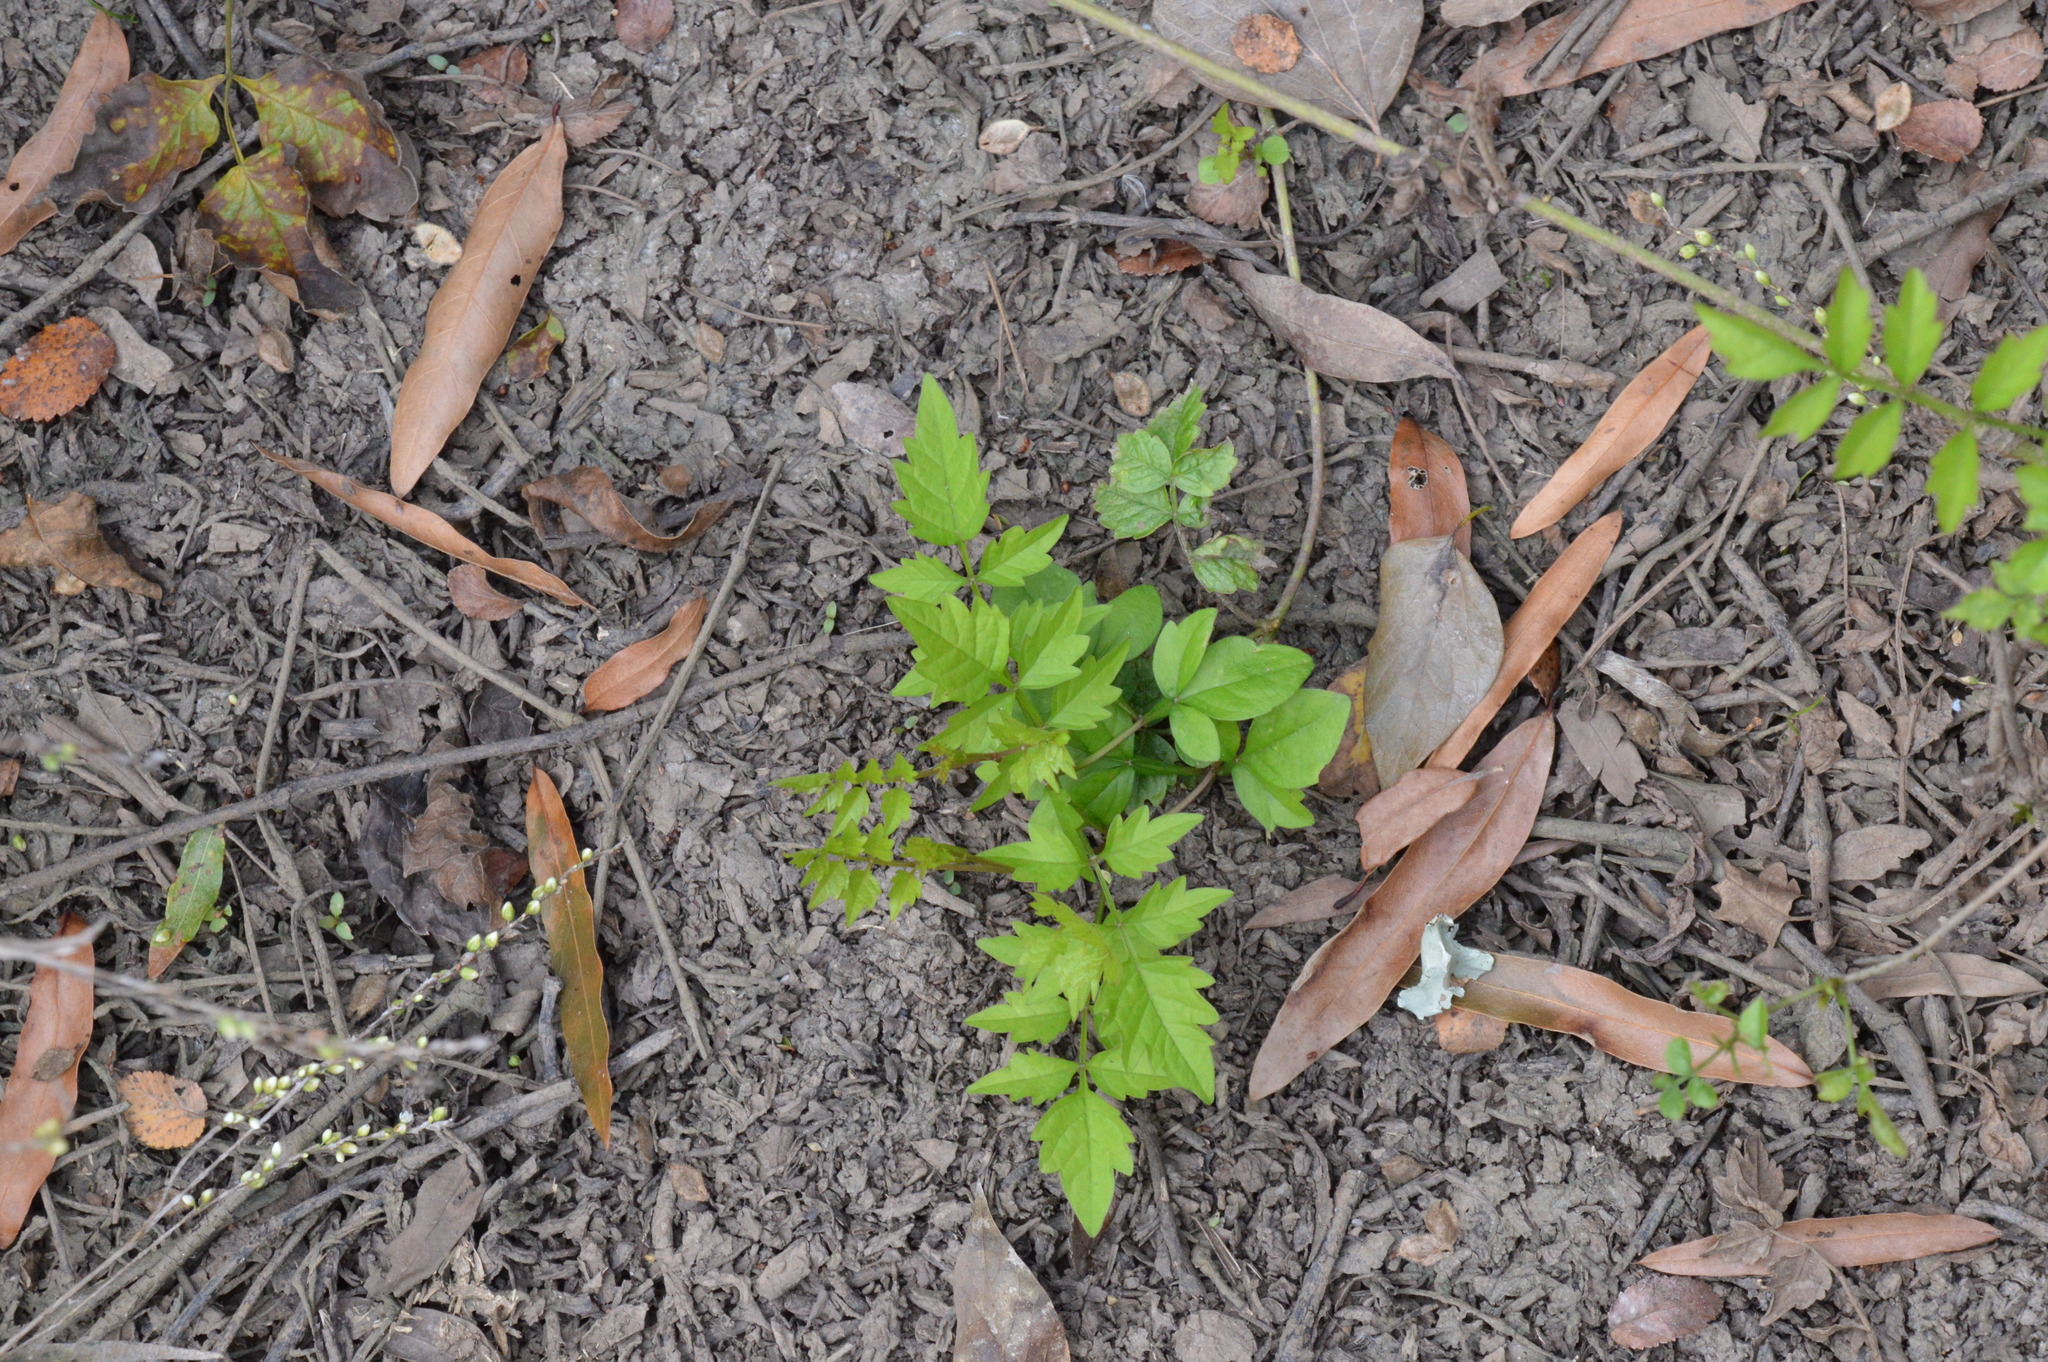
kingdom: Plantae
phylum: Tracheophyta
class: Magnoliopsida
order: Lamiales
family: Bignoniaceae
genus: Campsis
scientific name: Campsis radicans
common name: Trumpet-creeper
